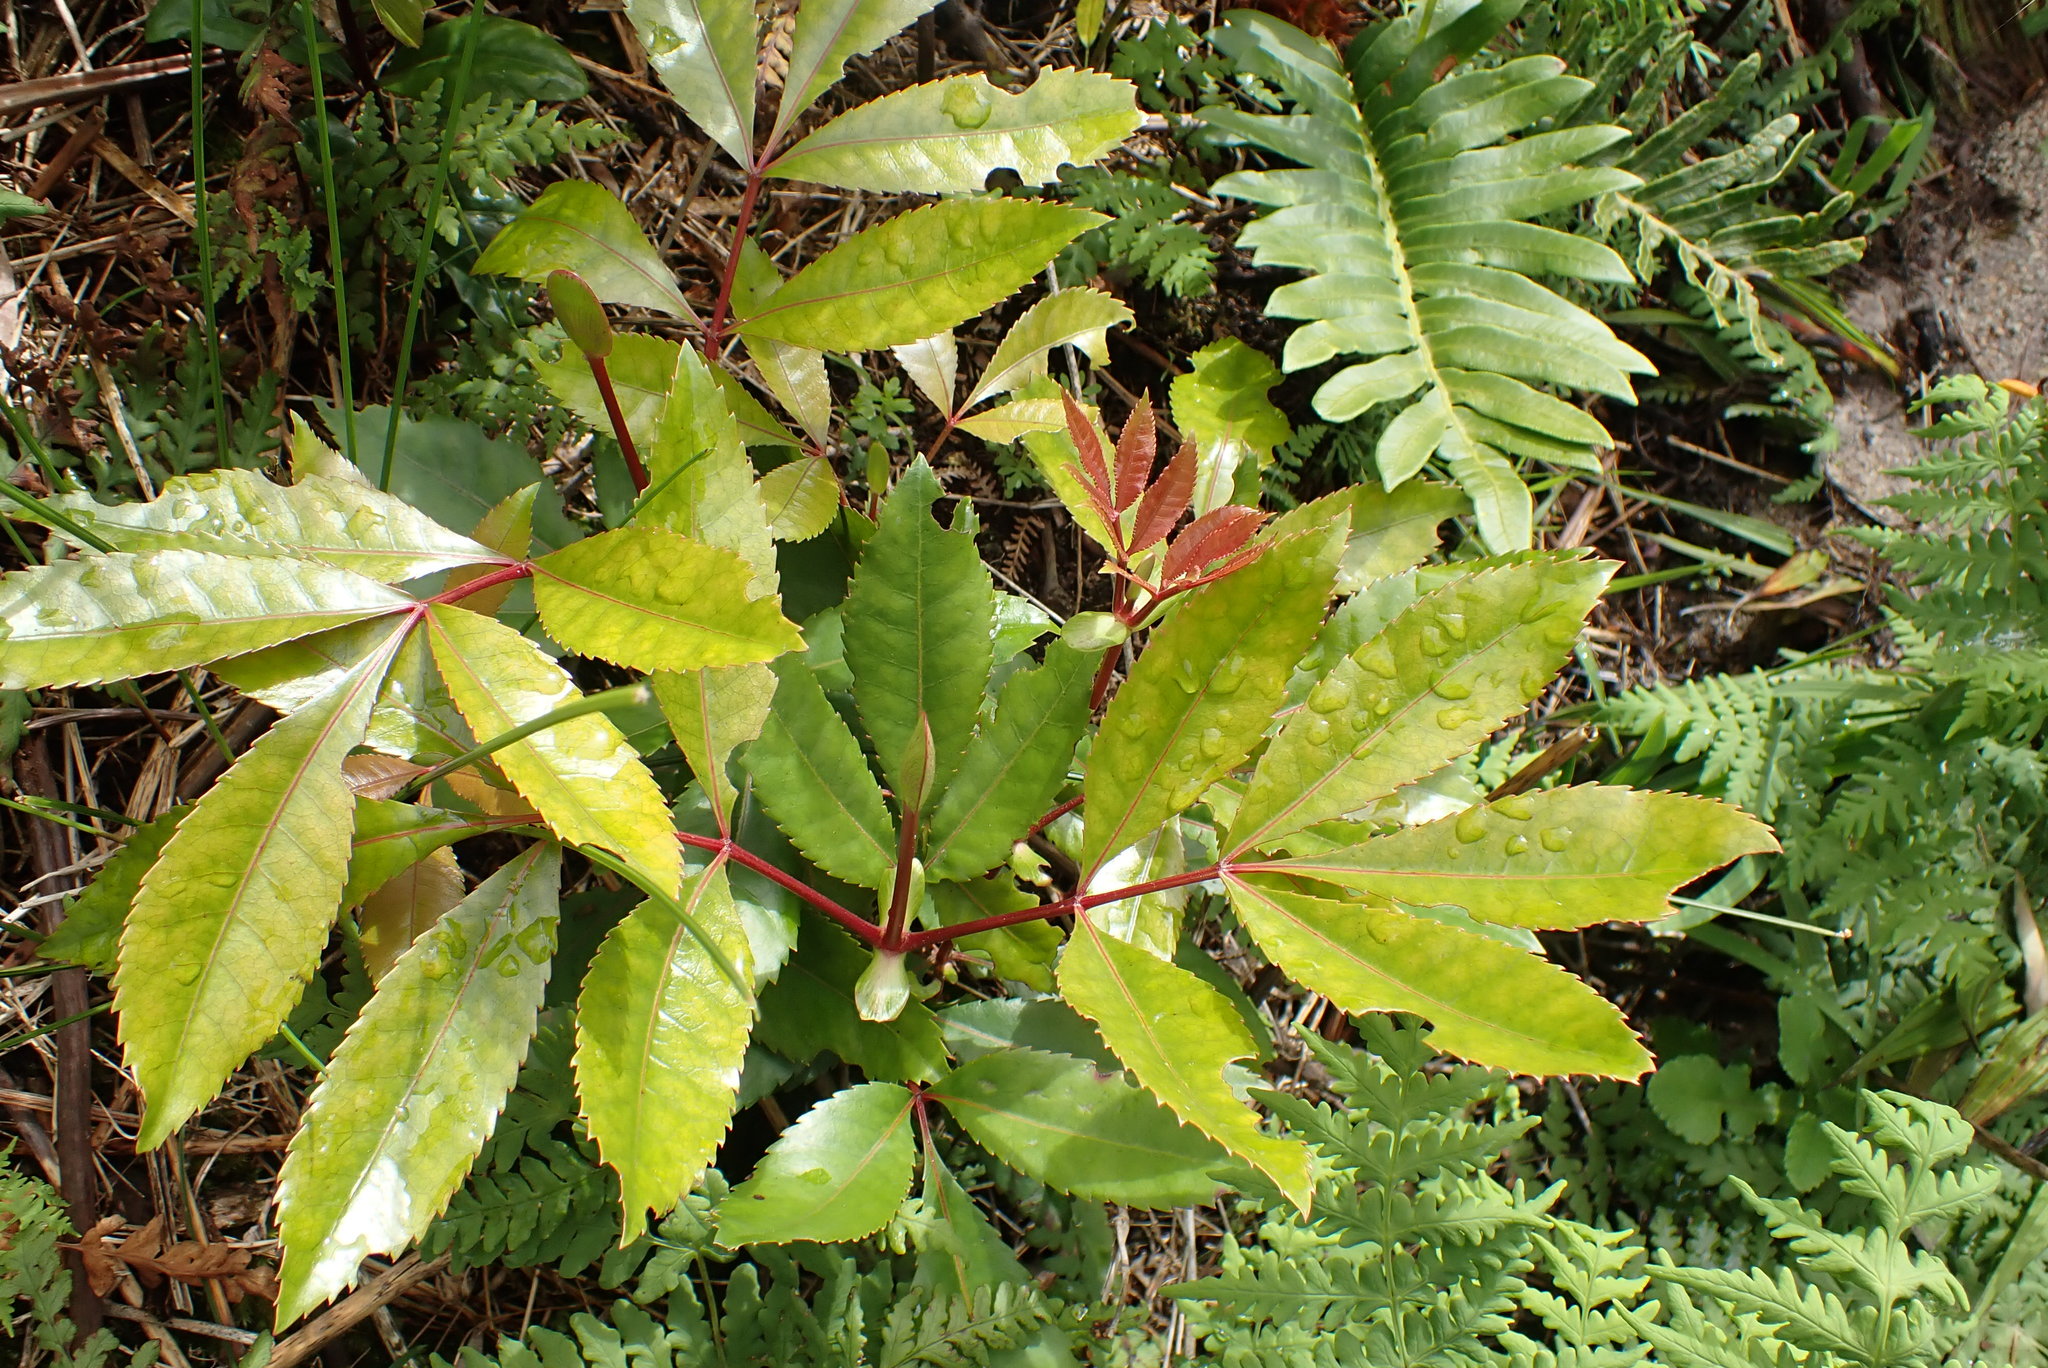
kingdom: Plantae
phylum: Tracheophyta
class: Magnoliopsida
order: Oxalidales
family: Cunoniaceae
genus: Cunonia
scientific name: Cunonia capensis
